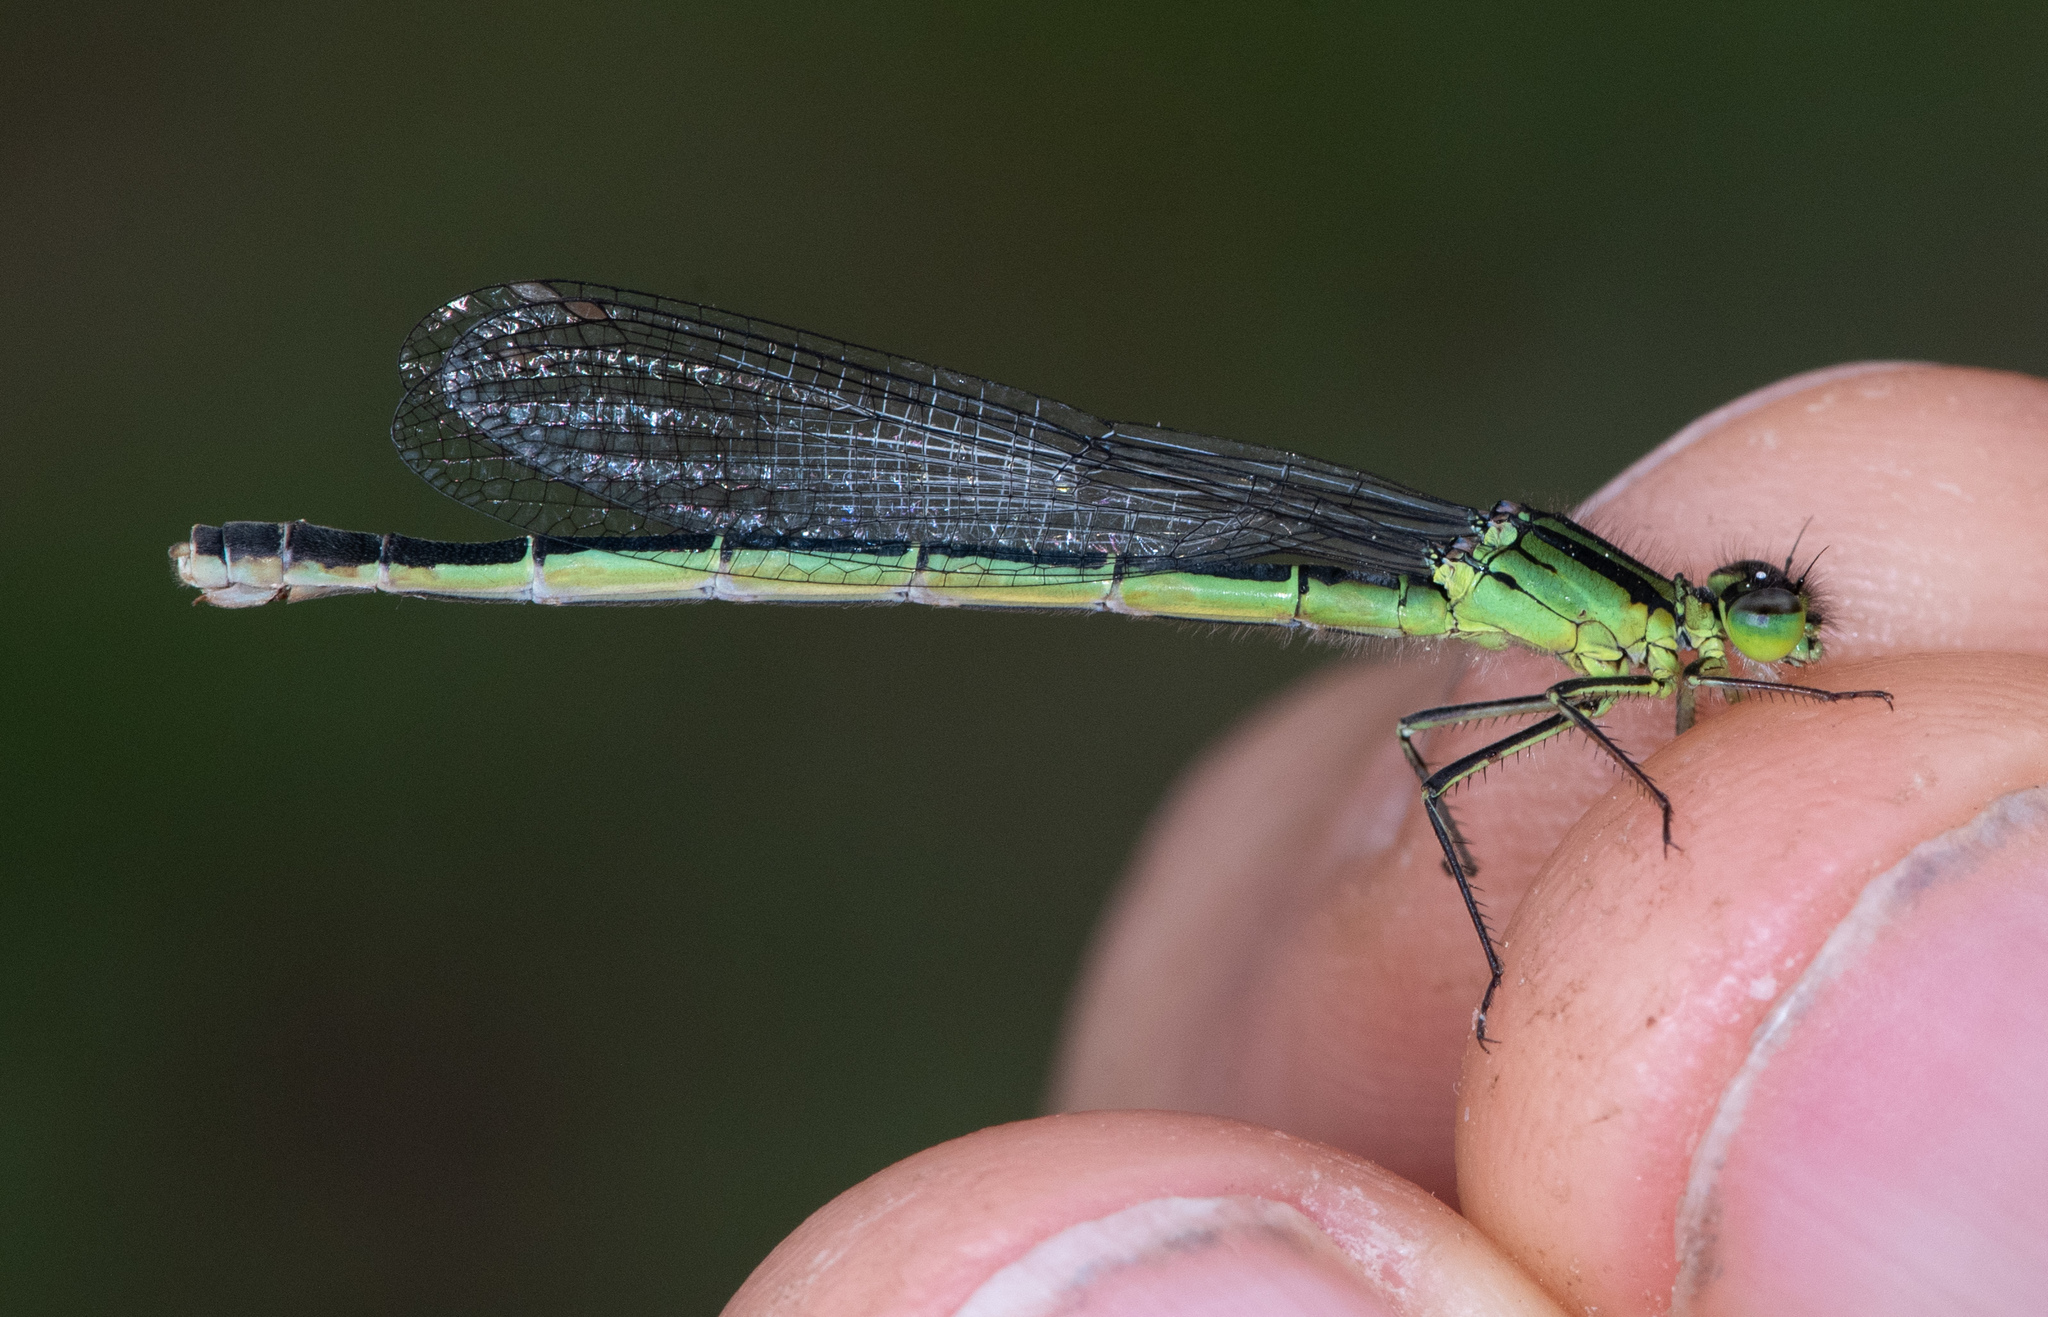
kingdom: Animalia
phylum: Arthropoda
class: Insecta
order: Odonata
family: Coenagrionidae
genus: Ischnura
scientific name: Ischnura erratica
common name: Swift forktail
